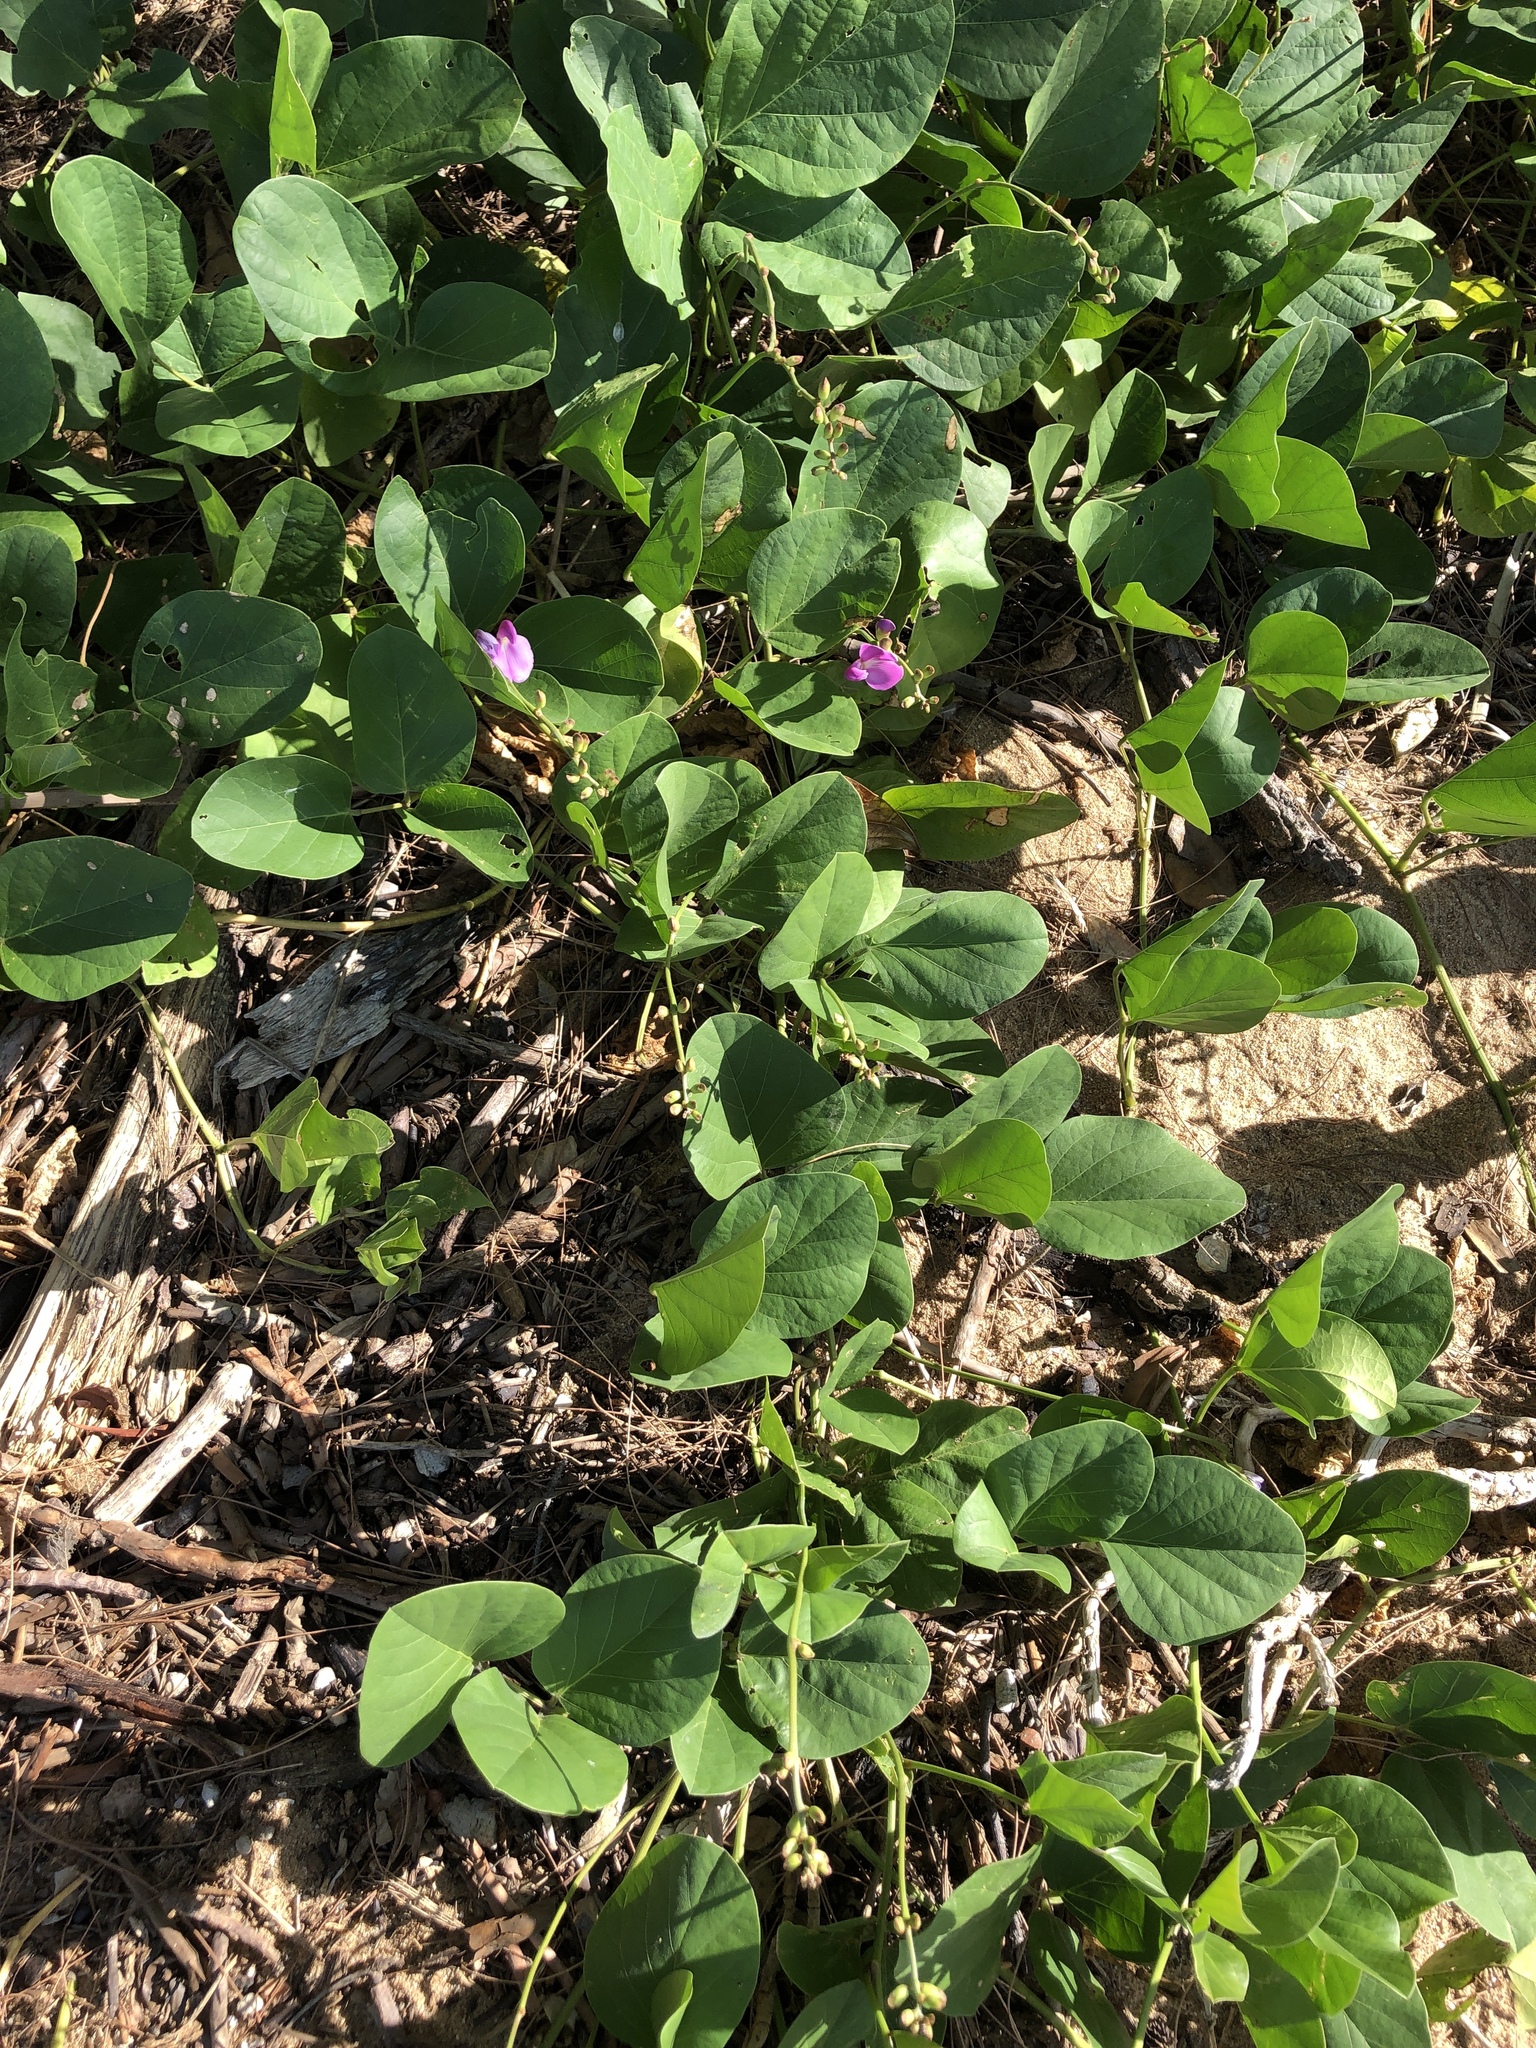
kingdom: Plantae
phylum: Tracheophyta
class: Magnoliopsida
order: Fabales
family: Fabaceae
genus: Canavalia
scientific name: Canavalia rosea
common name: Beach-bean
